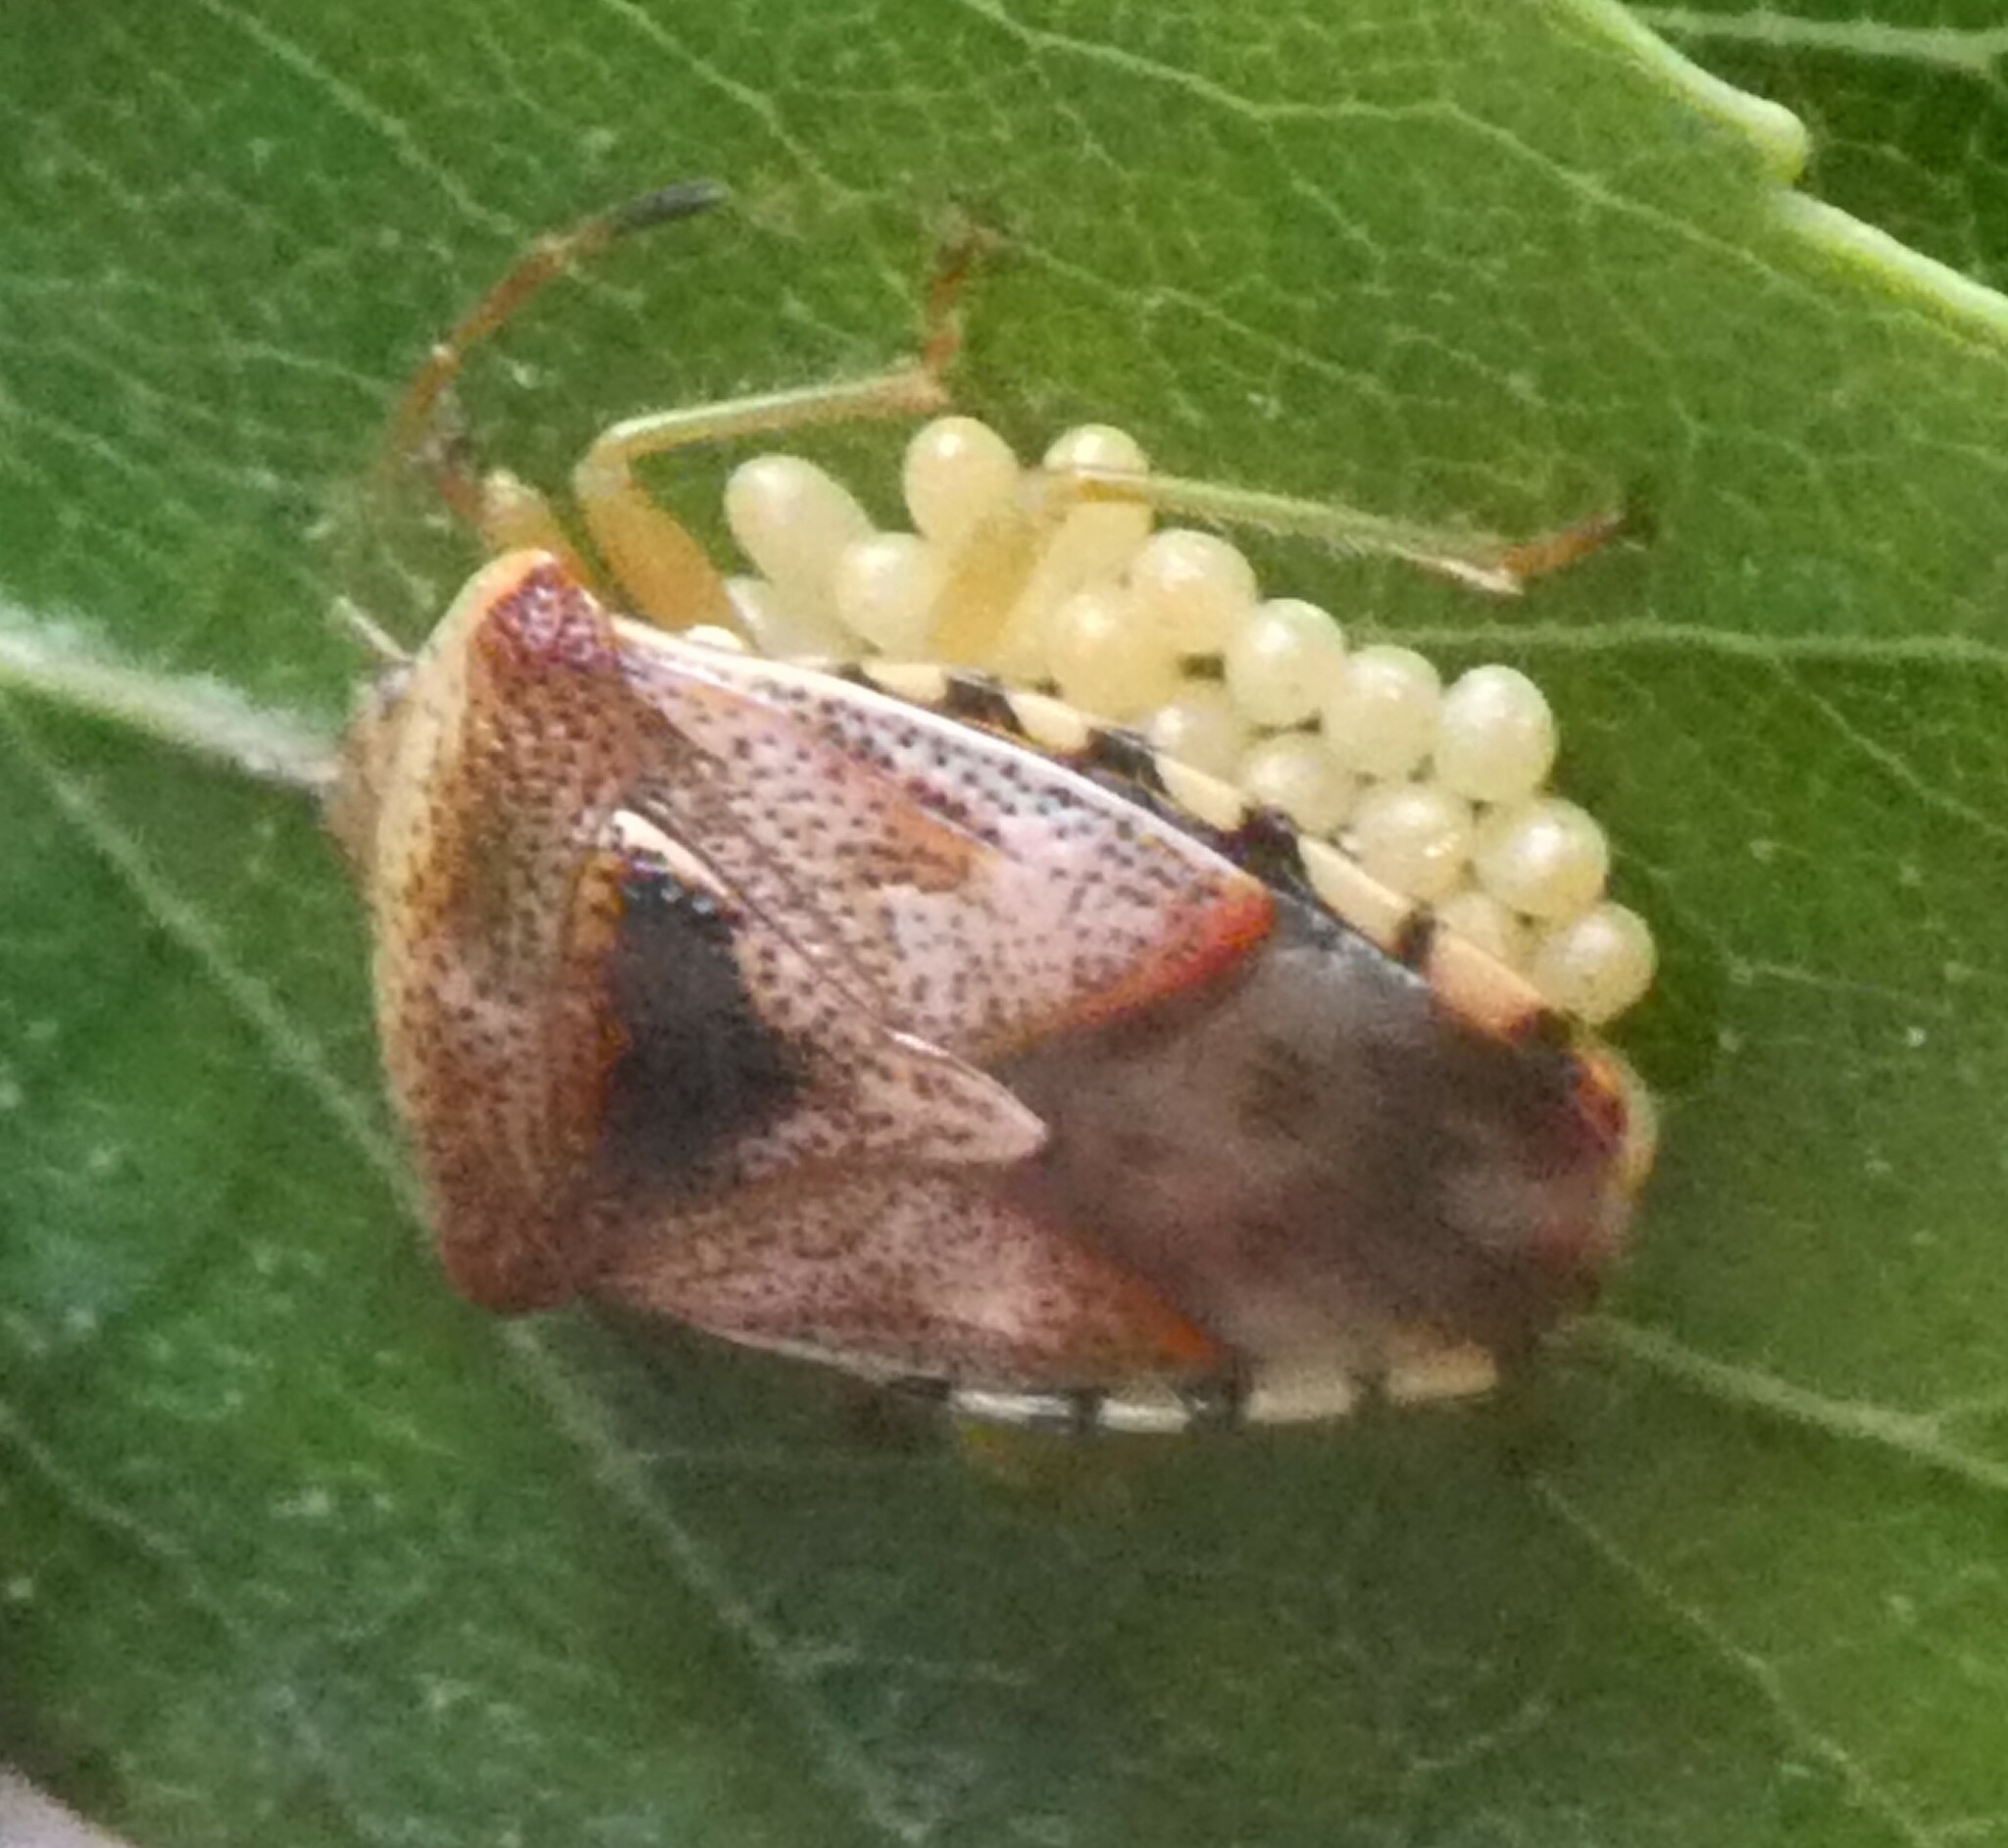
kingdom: Animalia
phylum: Arthropoda
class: Insecta
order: Hemiptera
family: Acanthosomatidae
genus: Elasmucha
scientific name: Elasmucha grisea
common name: Parent bug
